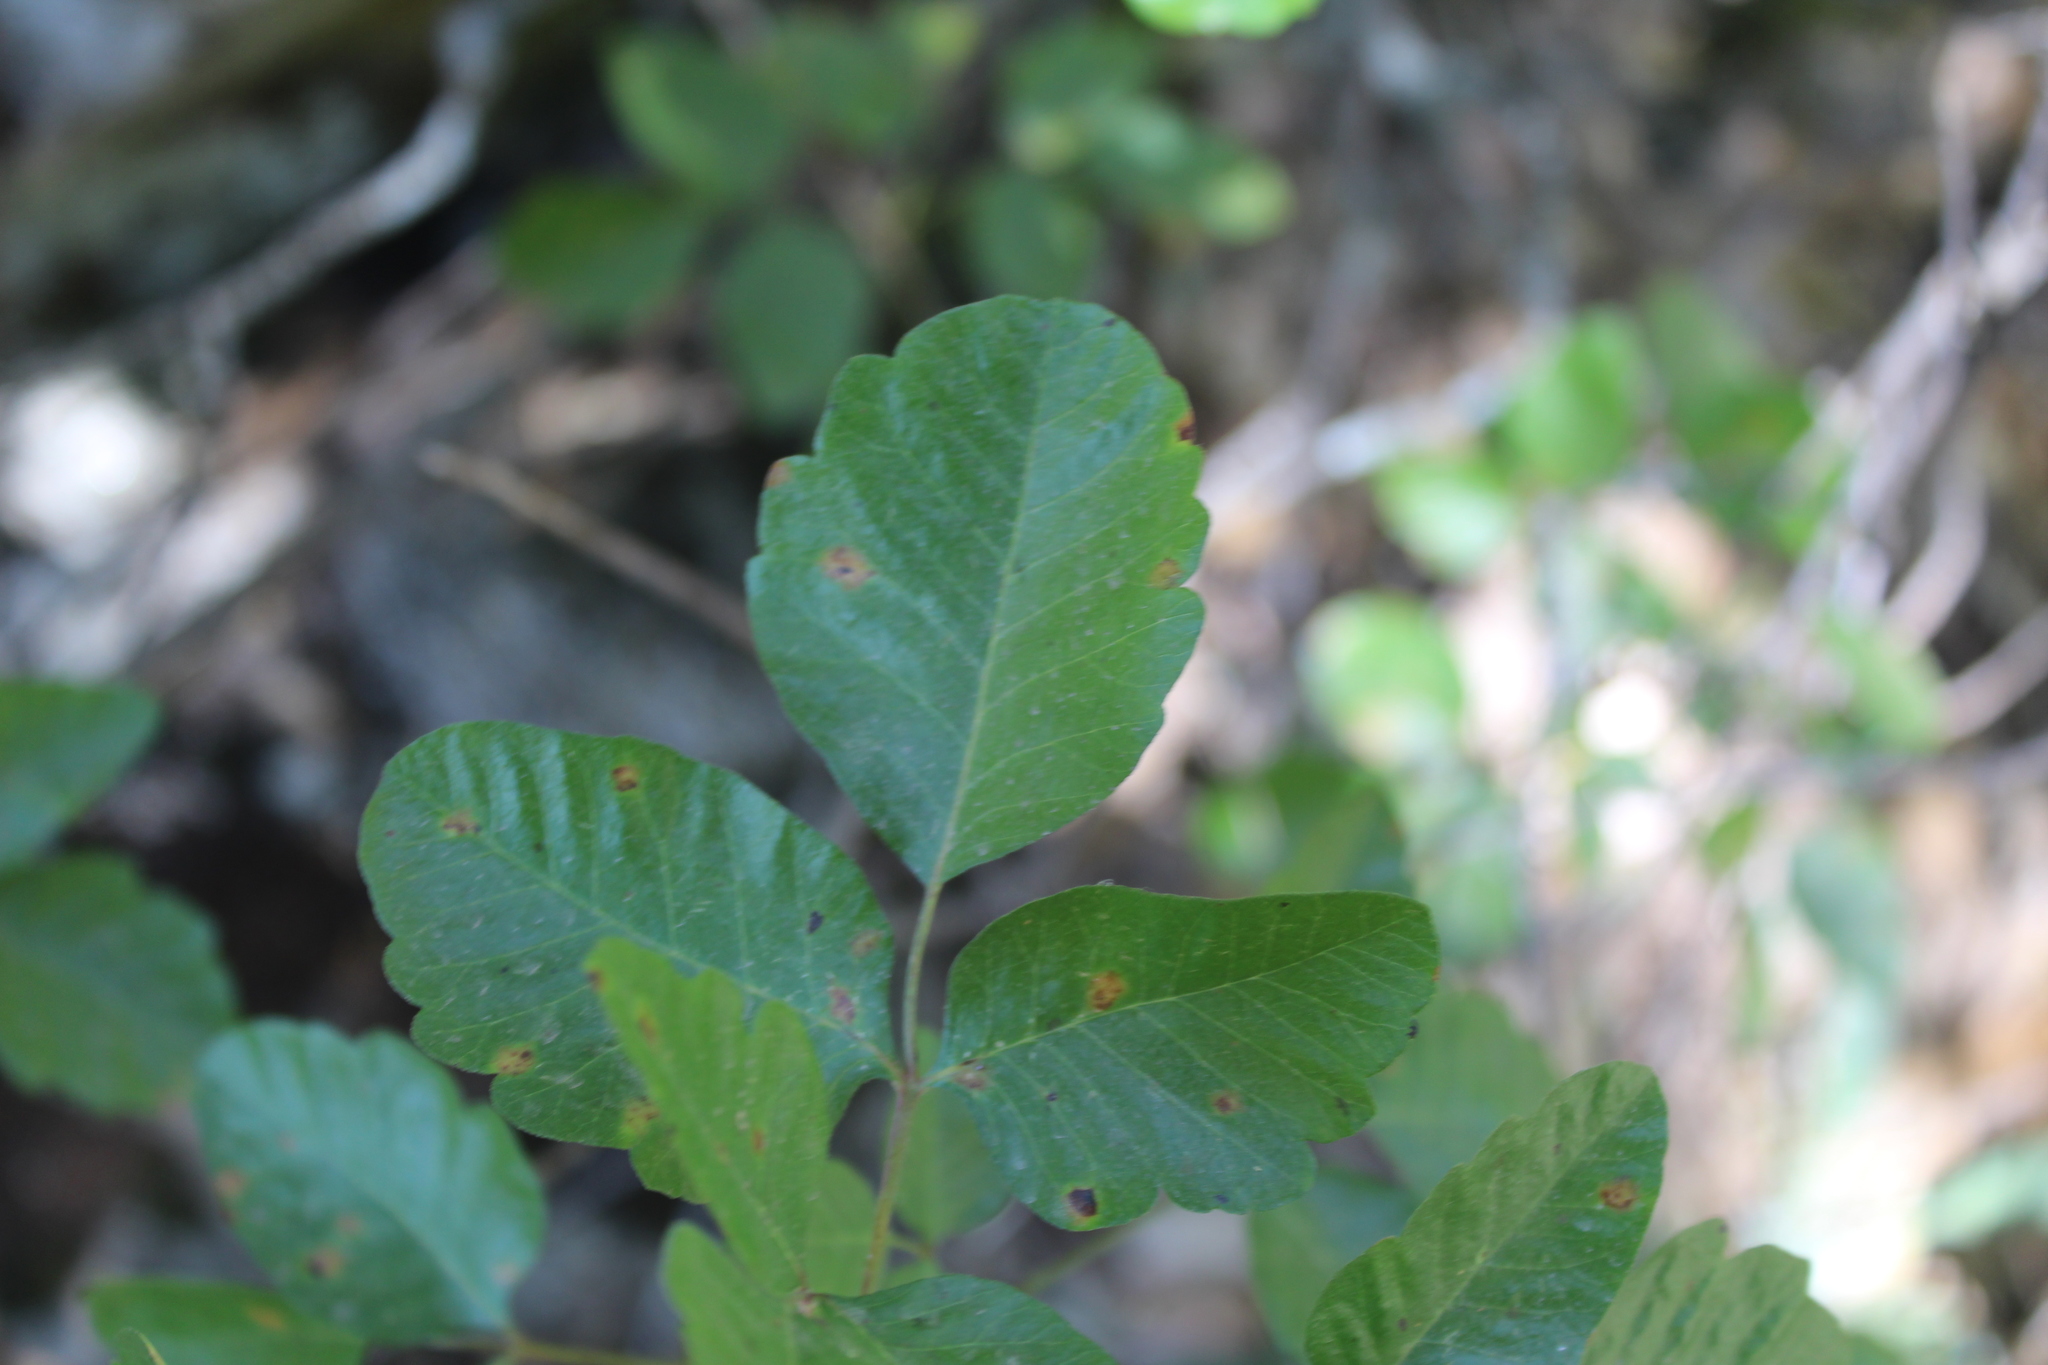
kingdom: Plantae
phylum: Tracheophyta
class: Magnoliopsida
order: Sapindales
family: Anacardiaceae
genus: Toxicodendron
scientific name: Toxicodendron diversilobum
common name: Pacific poison-oak
